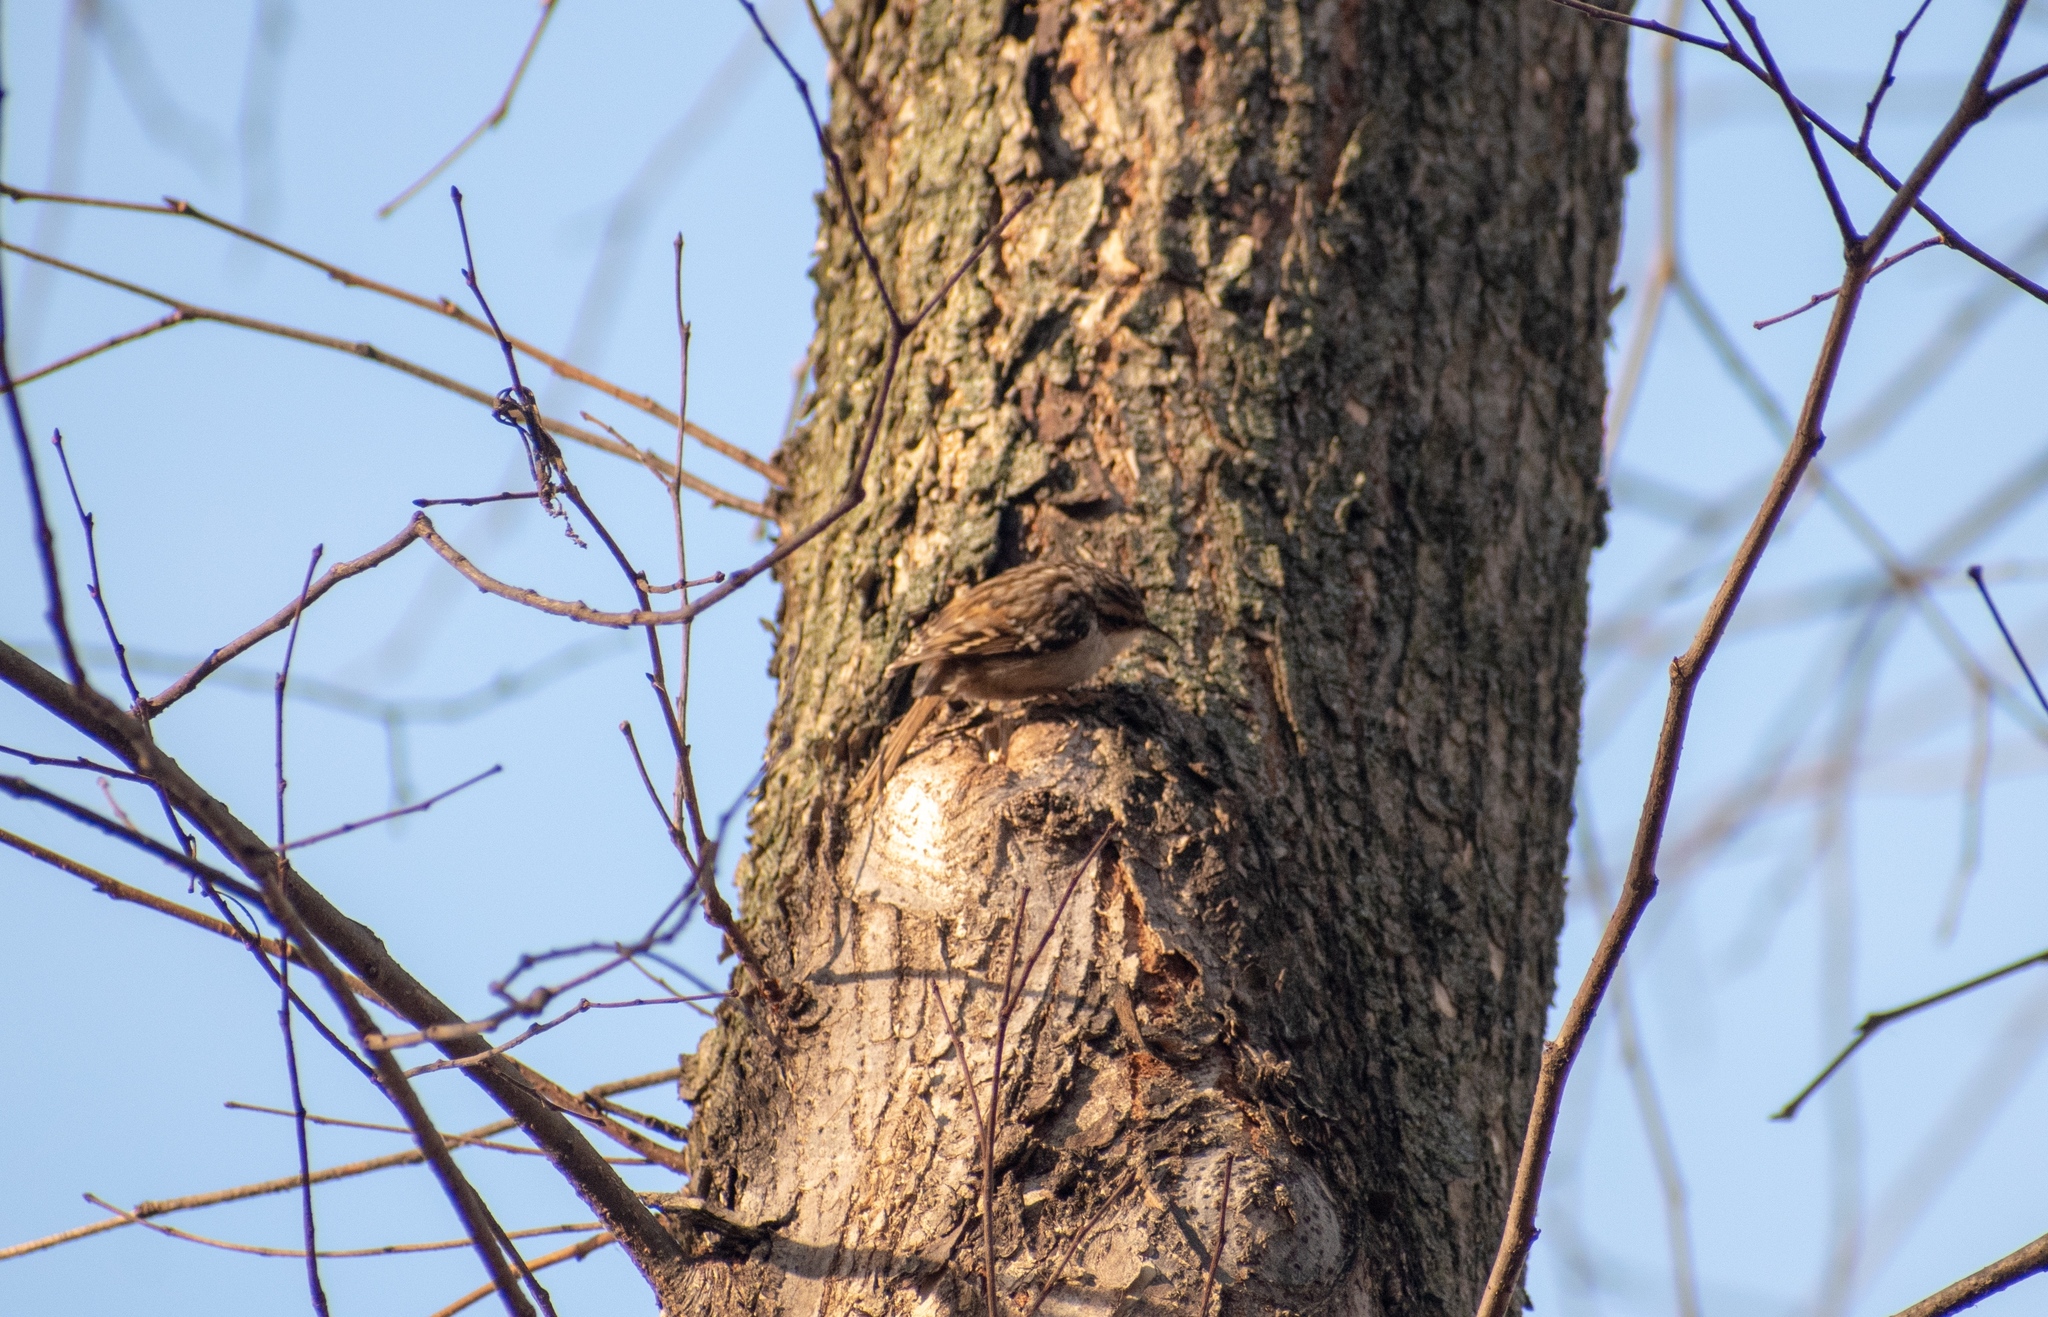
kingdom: Animalia
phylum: Chordata
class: Aves
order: Passeriformes
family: Certhiidae
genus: Certhia
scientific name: Certhia brachydactyla
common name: Short-toed treecreeper
